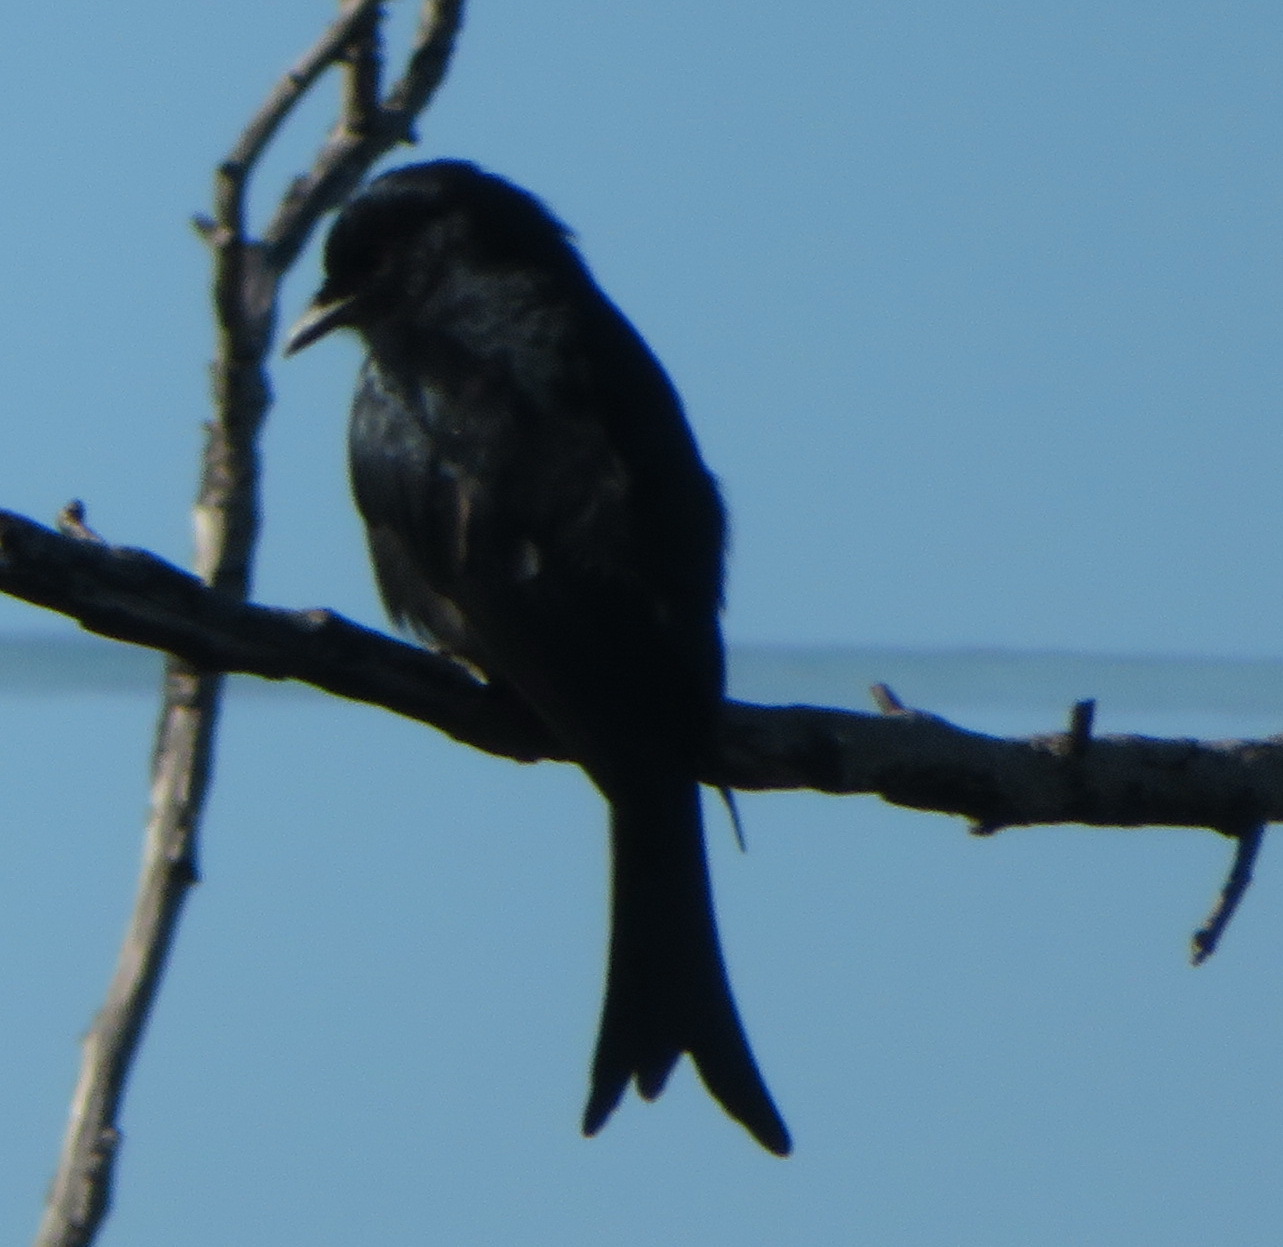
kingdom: Animalia
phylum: Chordata
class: Aves
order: Passeriformes
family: Dicruridae
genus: Dicrurus
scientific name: Dicrurus adsimilis
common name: Fork-tailed drongo
